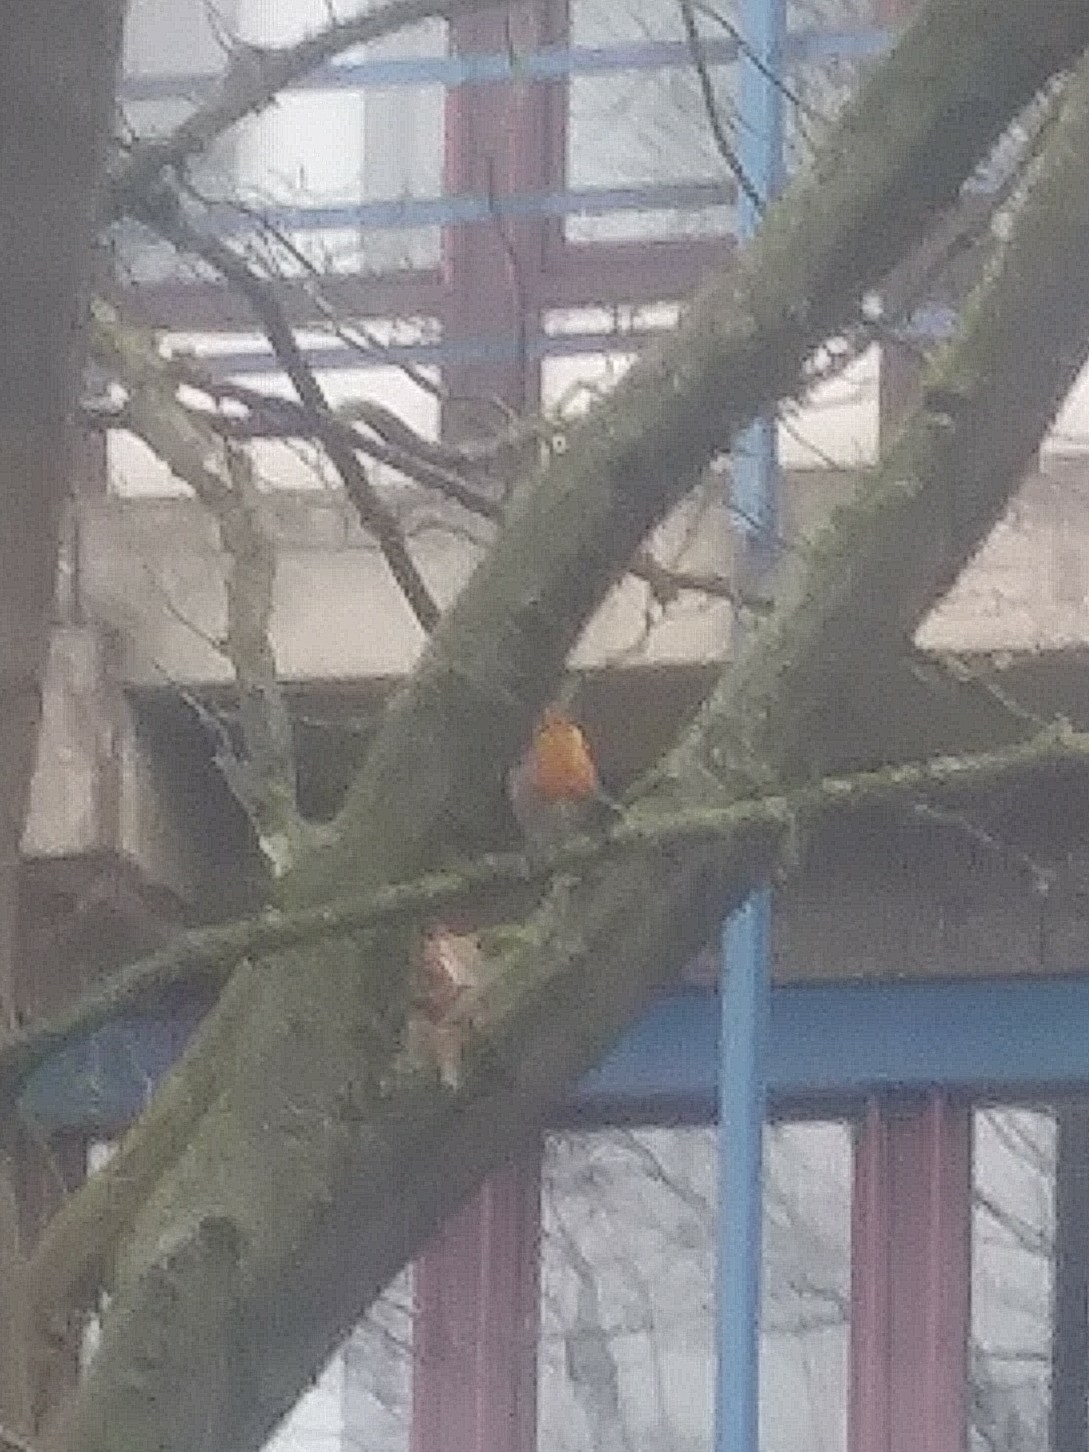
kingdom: Animalia
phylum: Chordata
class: Aves
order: Passeriformes
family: Muscicapidae
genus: Erithacus
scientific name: Erithacus rubecula
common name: European robin
